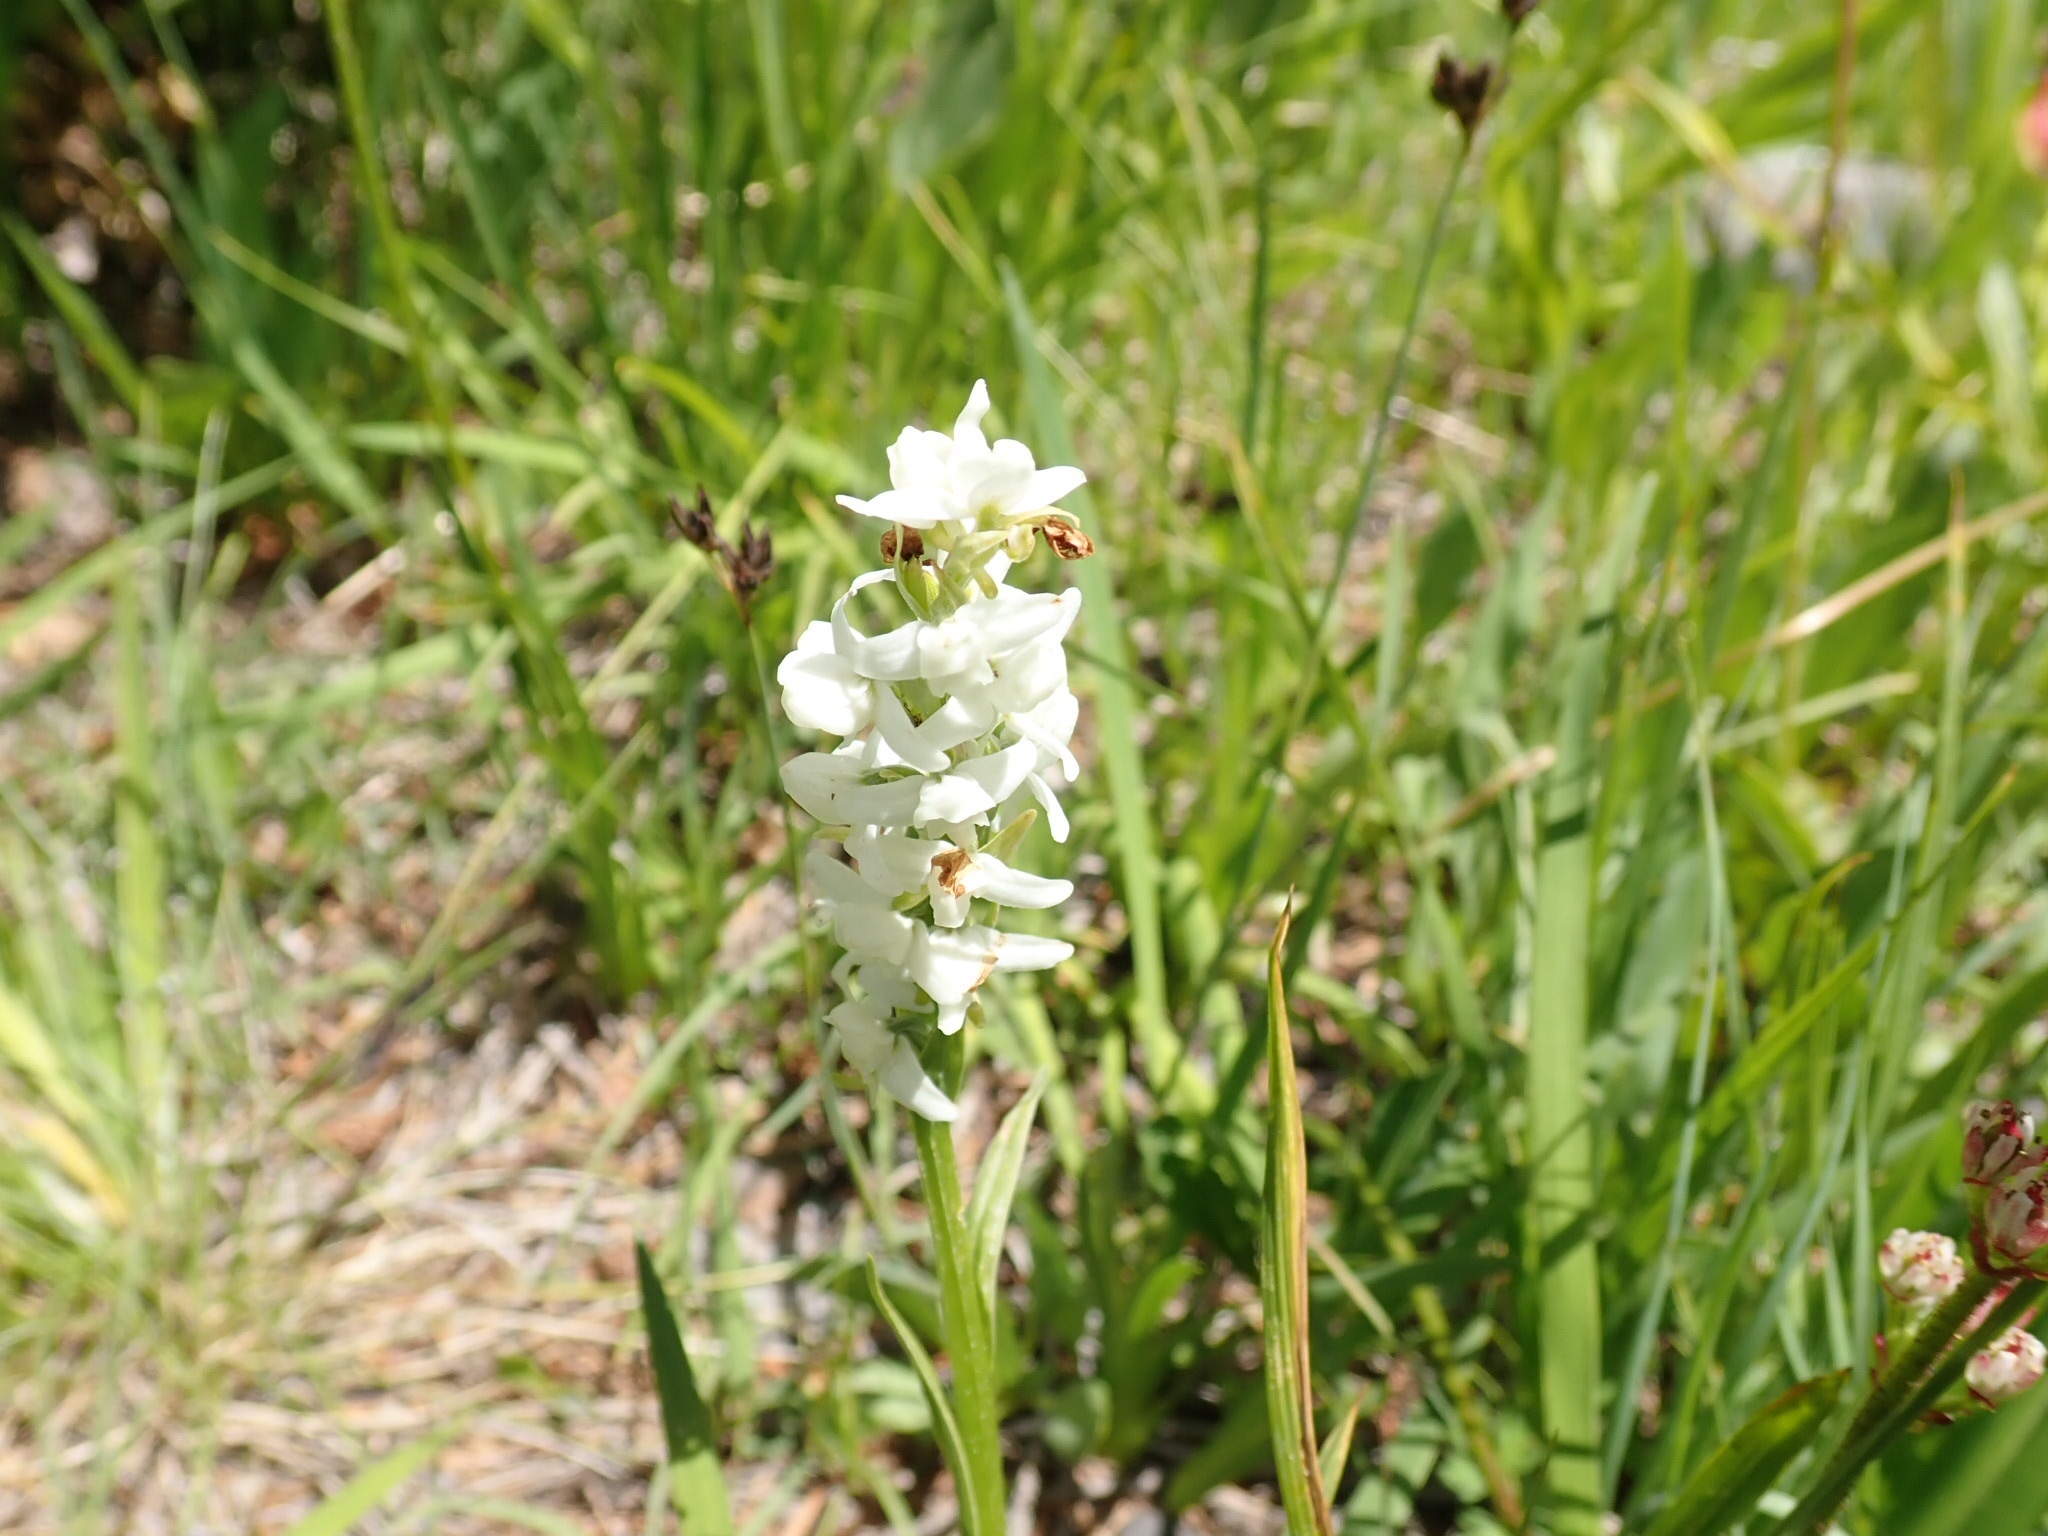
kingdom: Plantae
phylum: Tracheophyta
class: Liliopsida
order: Asparagales
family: Orchidaceae
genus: Platanthera
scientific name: Platanthera dilatata
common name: Bog candles
